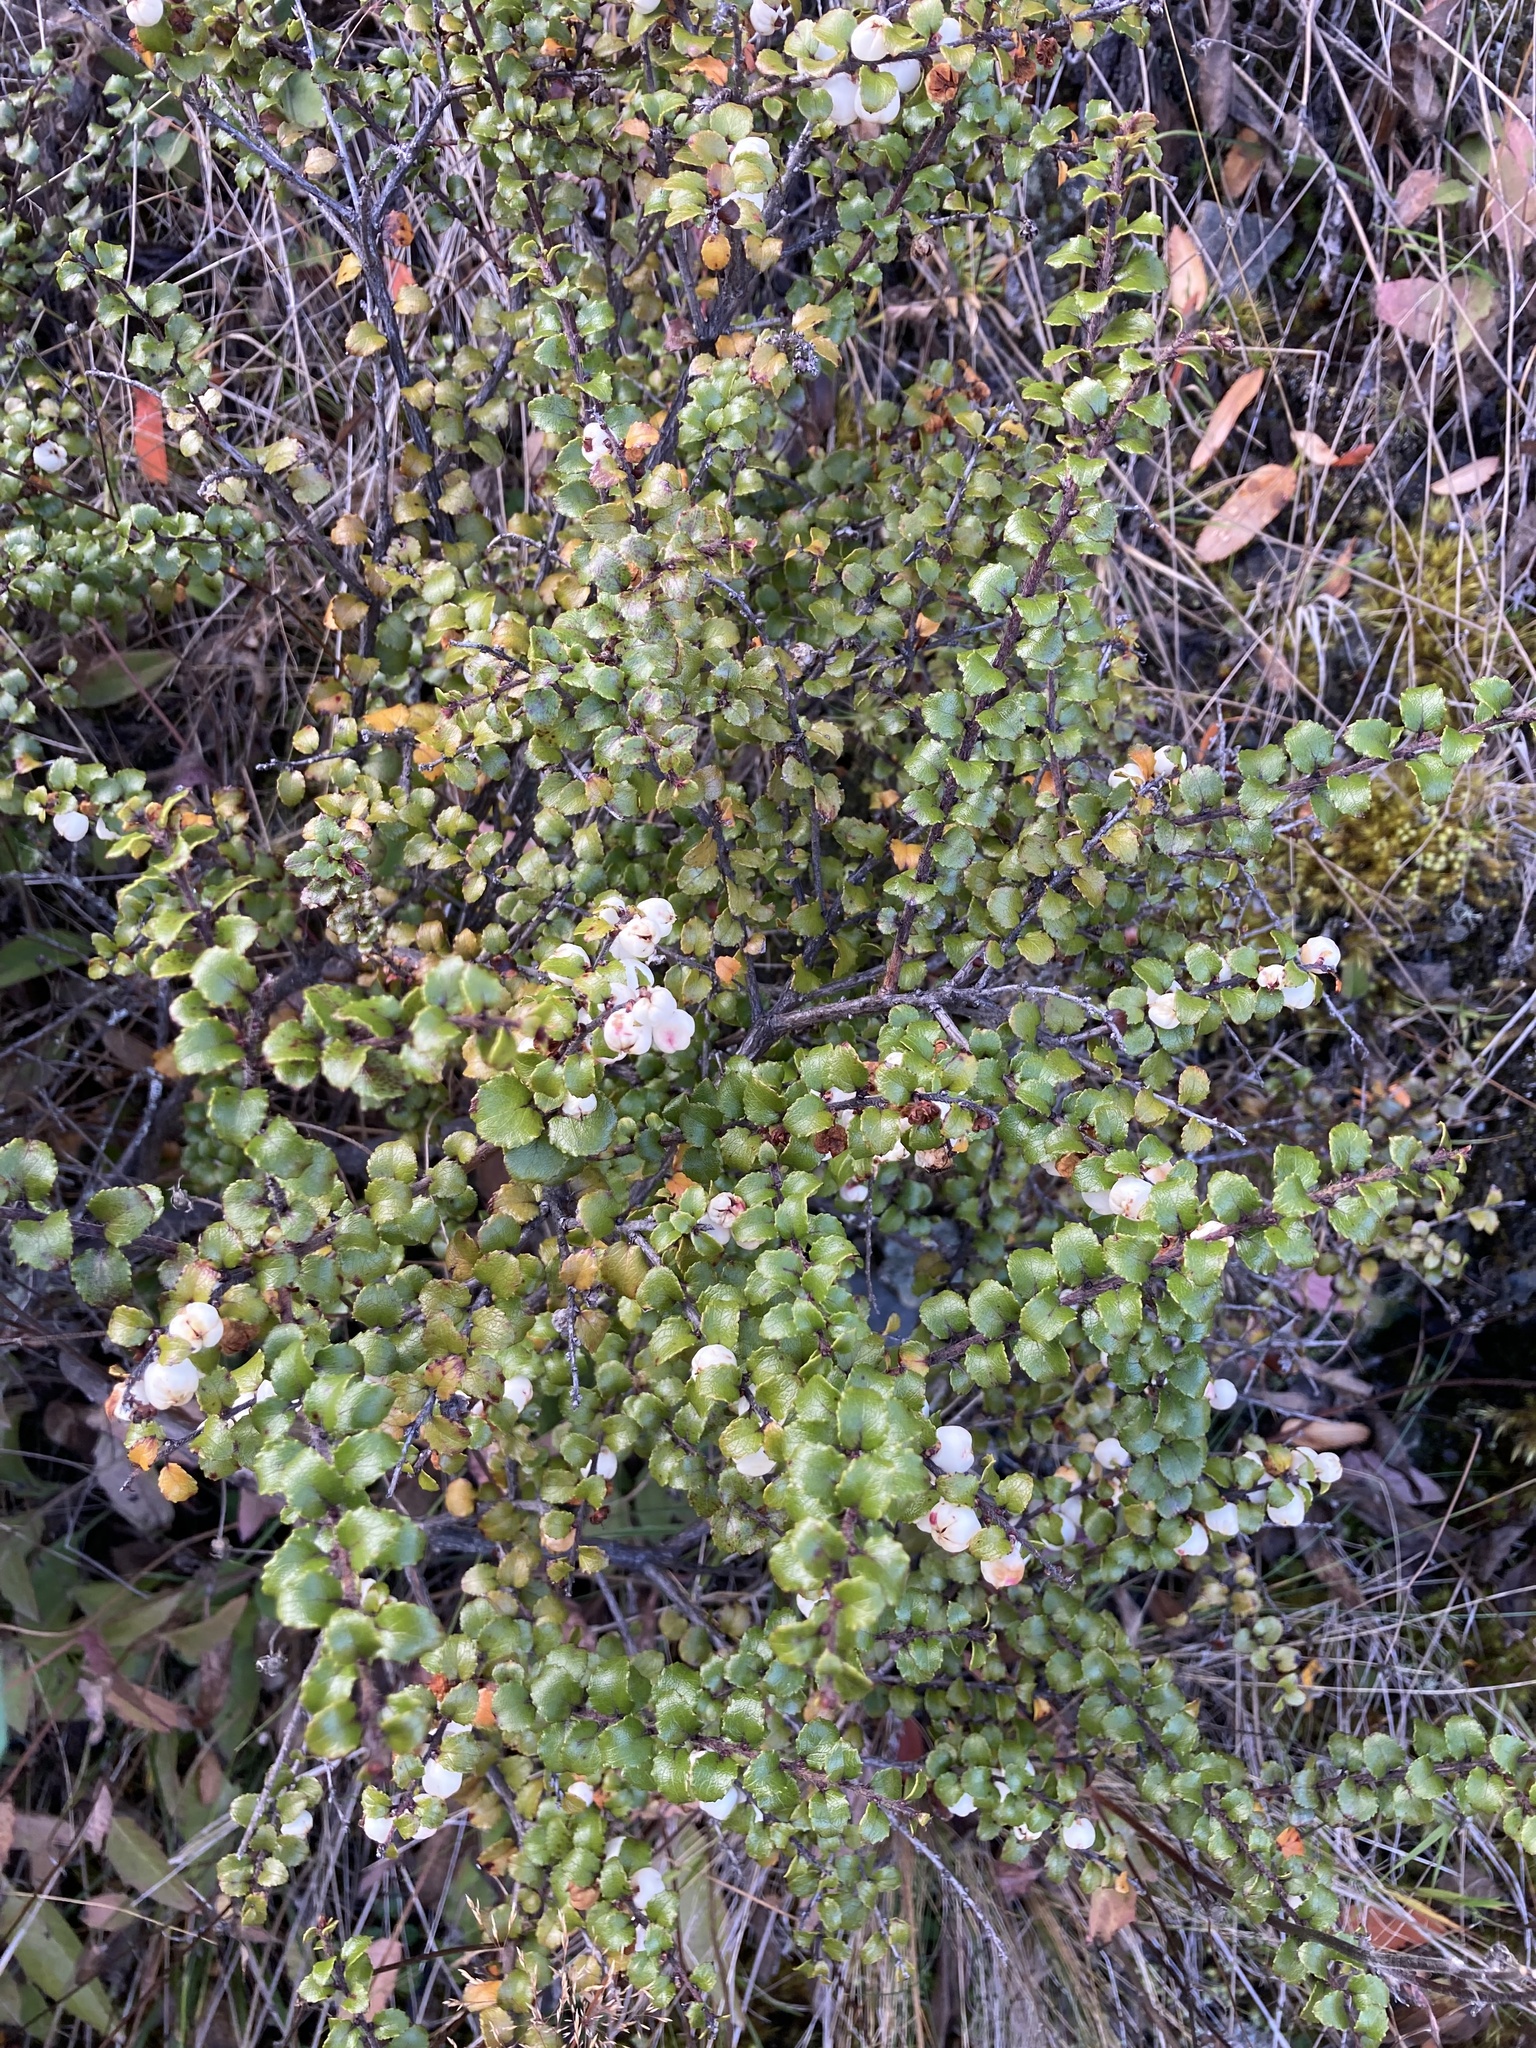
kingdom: Plantae
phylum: Tracheophyta
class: Magnoliopsida
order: Ericales
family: Ericaceae
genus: Gaultheria
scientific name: Gaultheria antipoda
